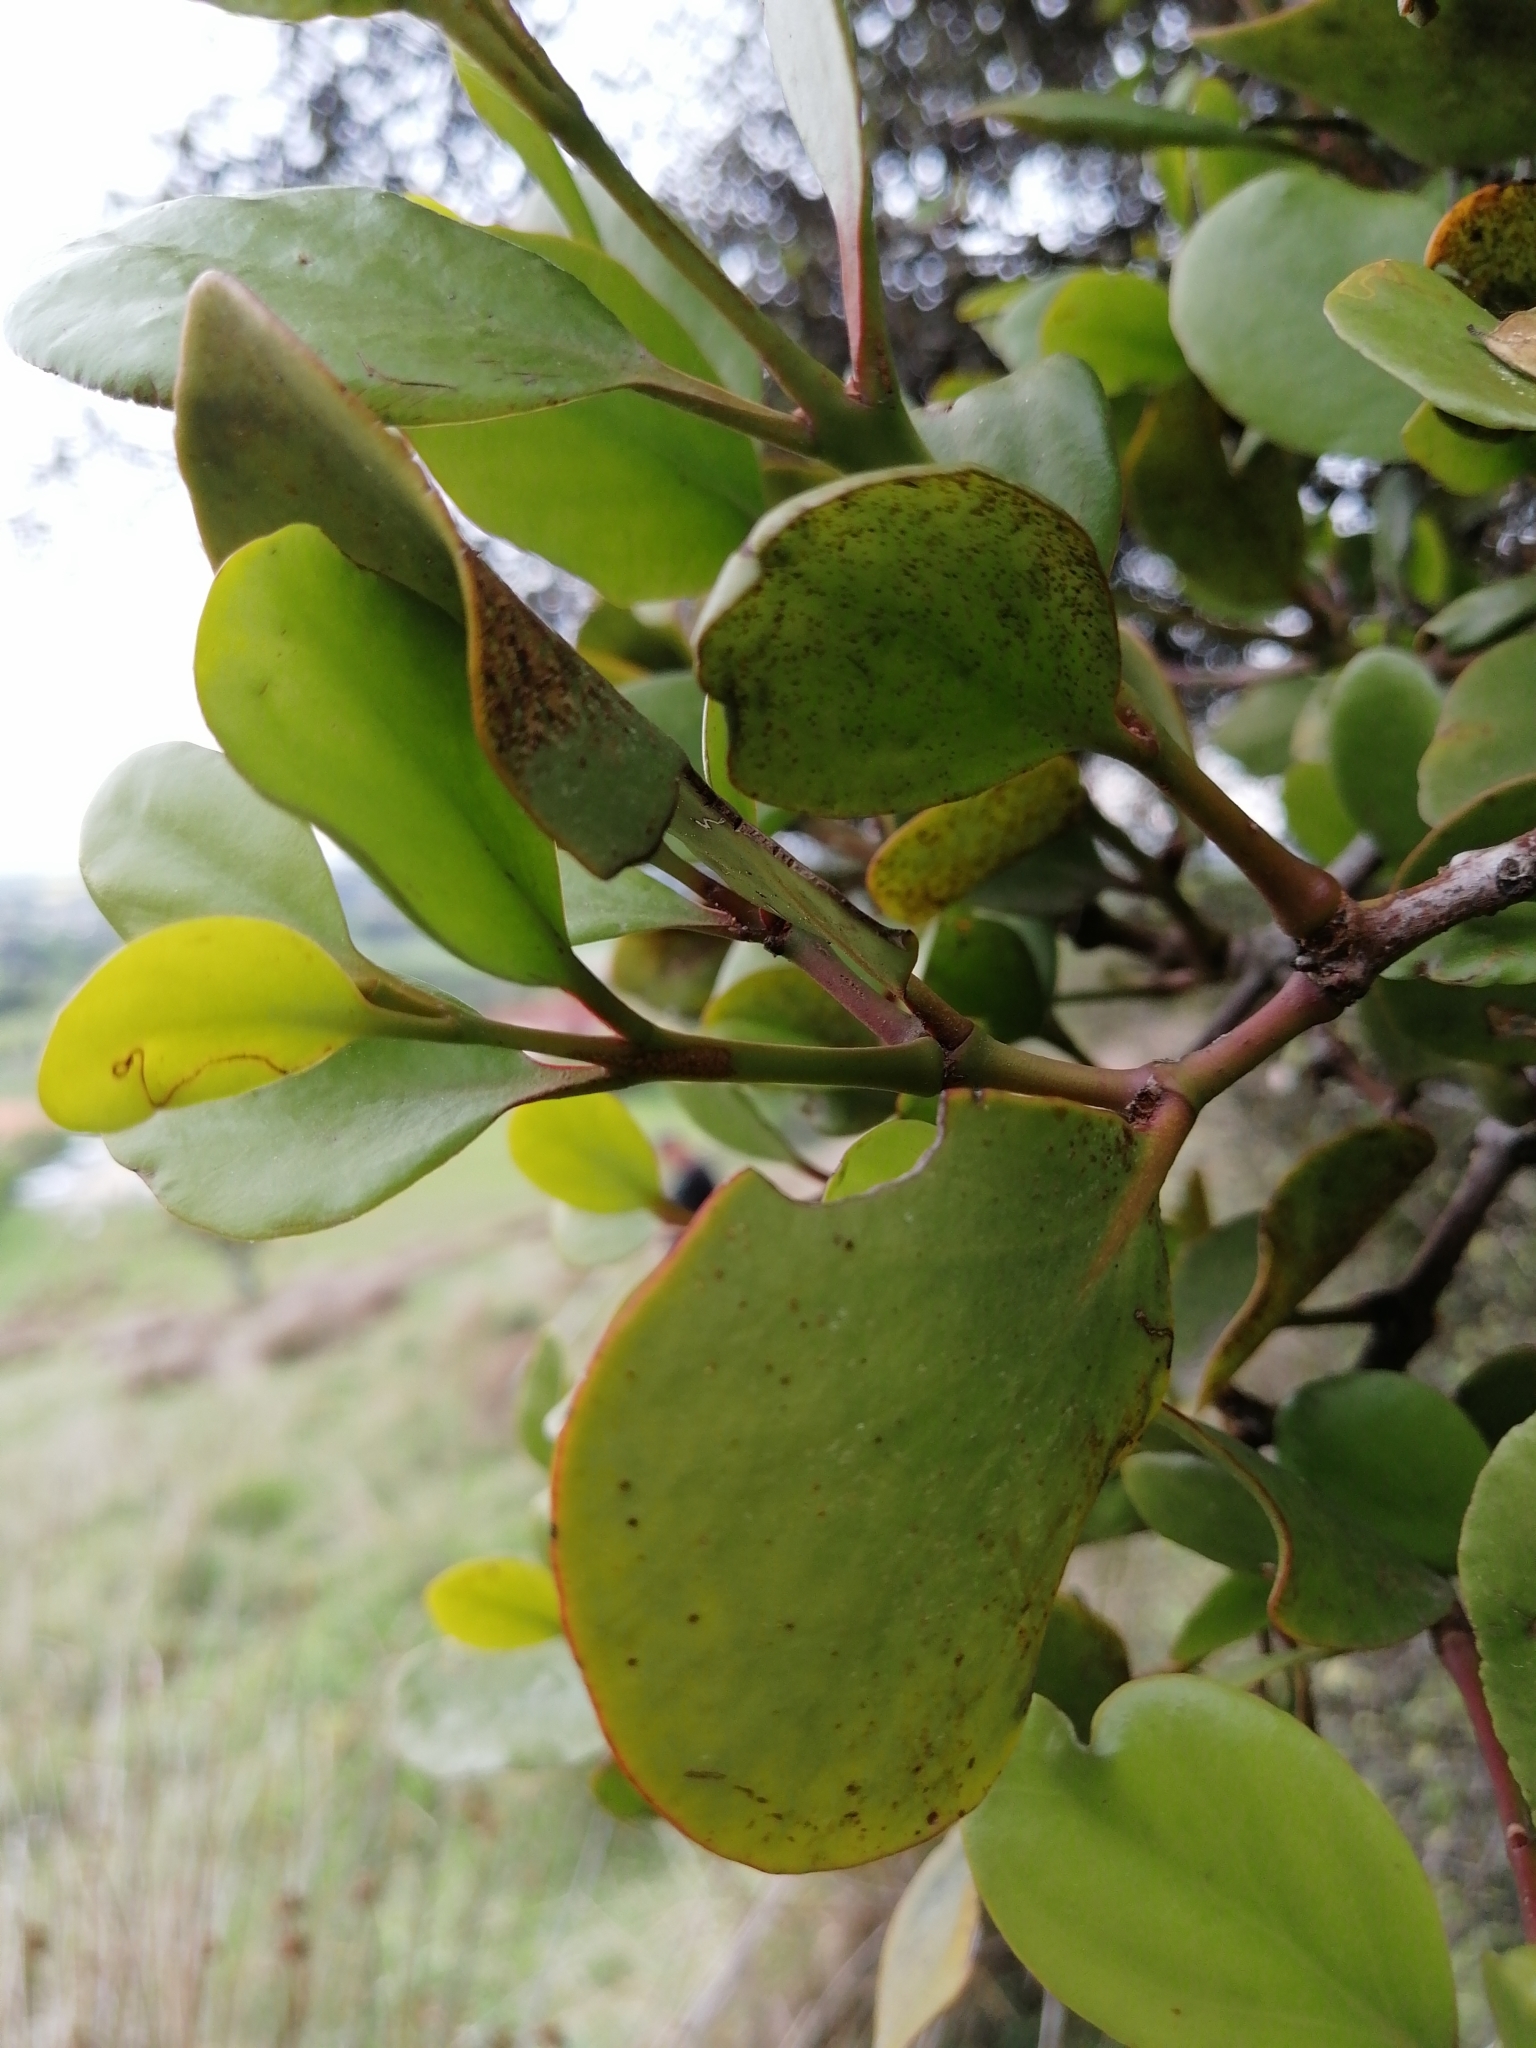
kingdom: Plantae
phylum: Tracheophyta
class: Magnoliopsida
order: Santalales
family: Loranthaceae
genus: Ileostylus
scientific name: Ileostylus micranthus
